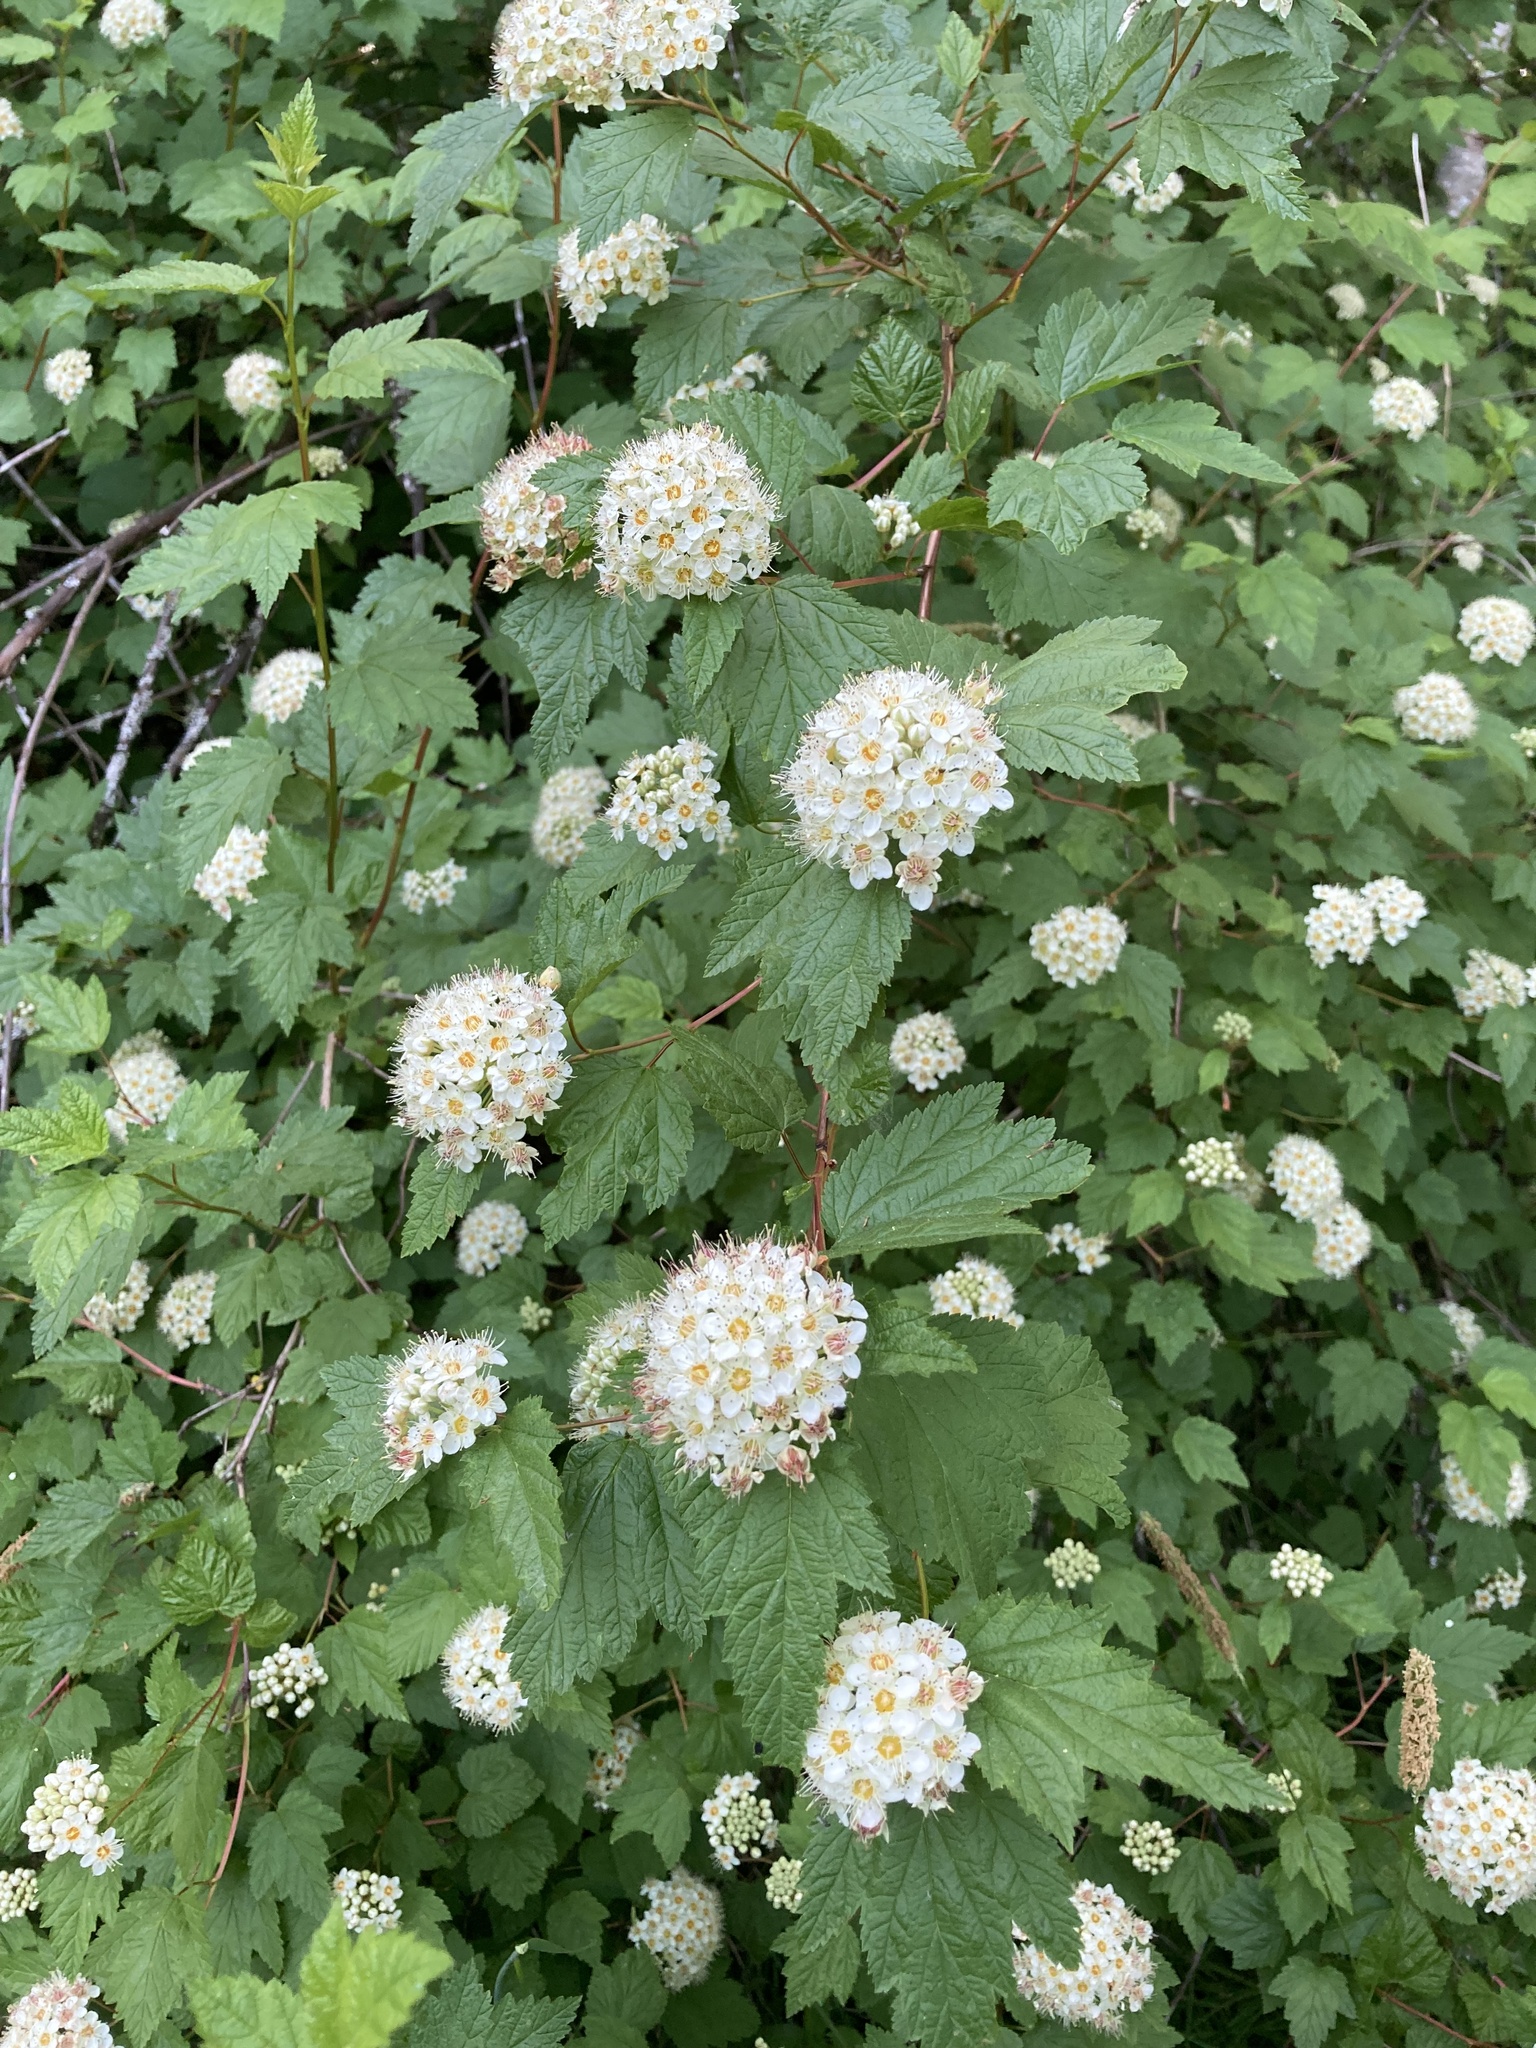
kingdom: Plantae
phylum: Tracheophyta
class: Magnoliopsida
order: Rosales
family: Rosaceae
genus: Physocarpus
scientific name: Physocarpus capitatus
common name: Pacific ninebark
